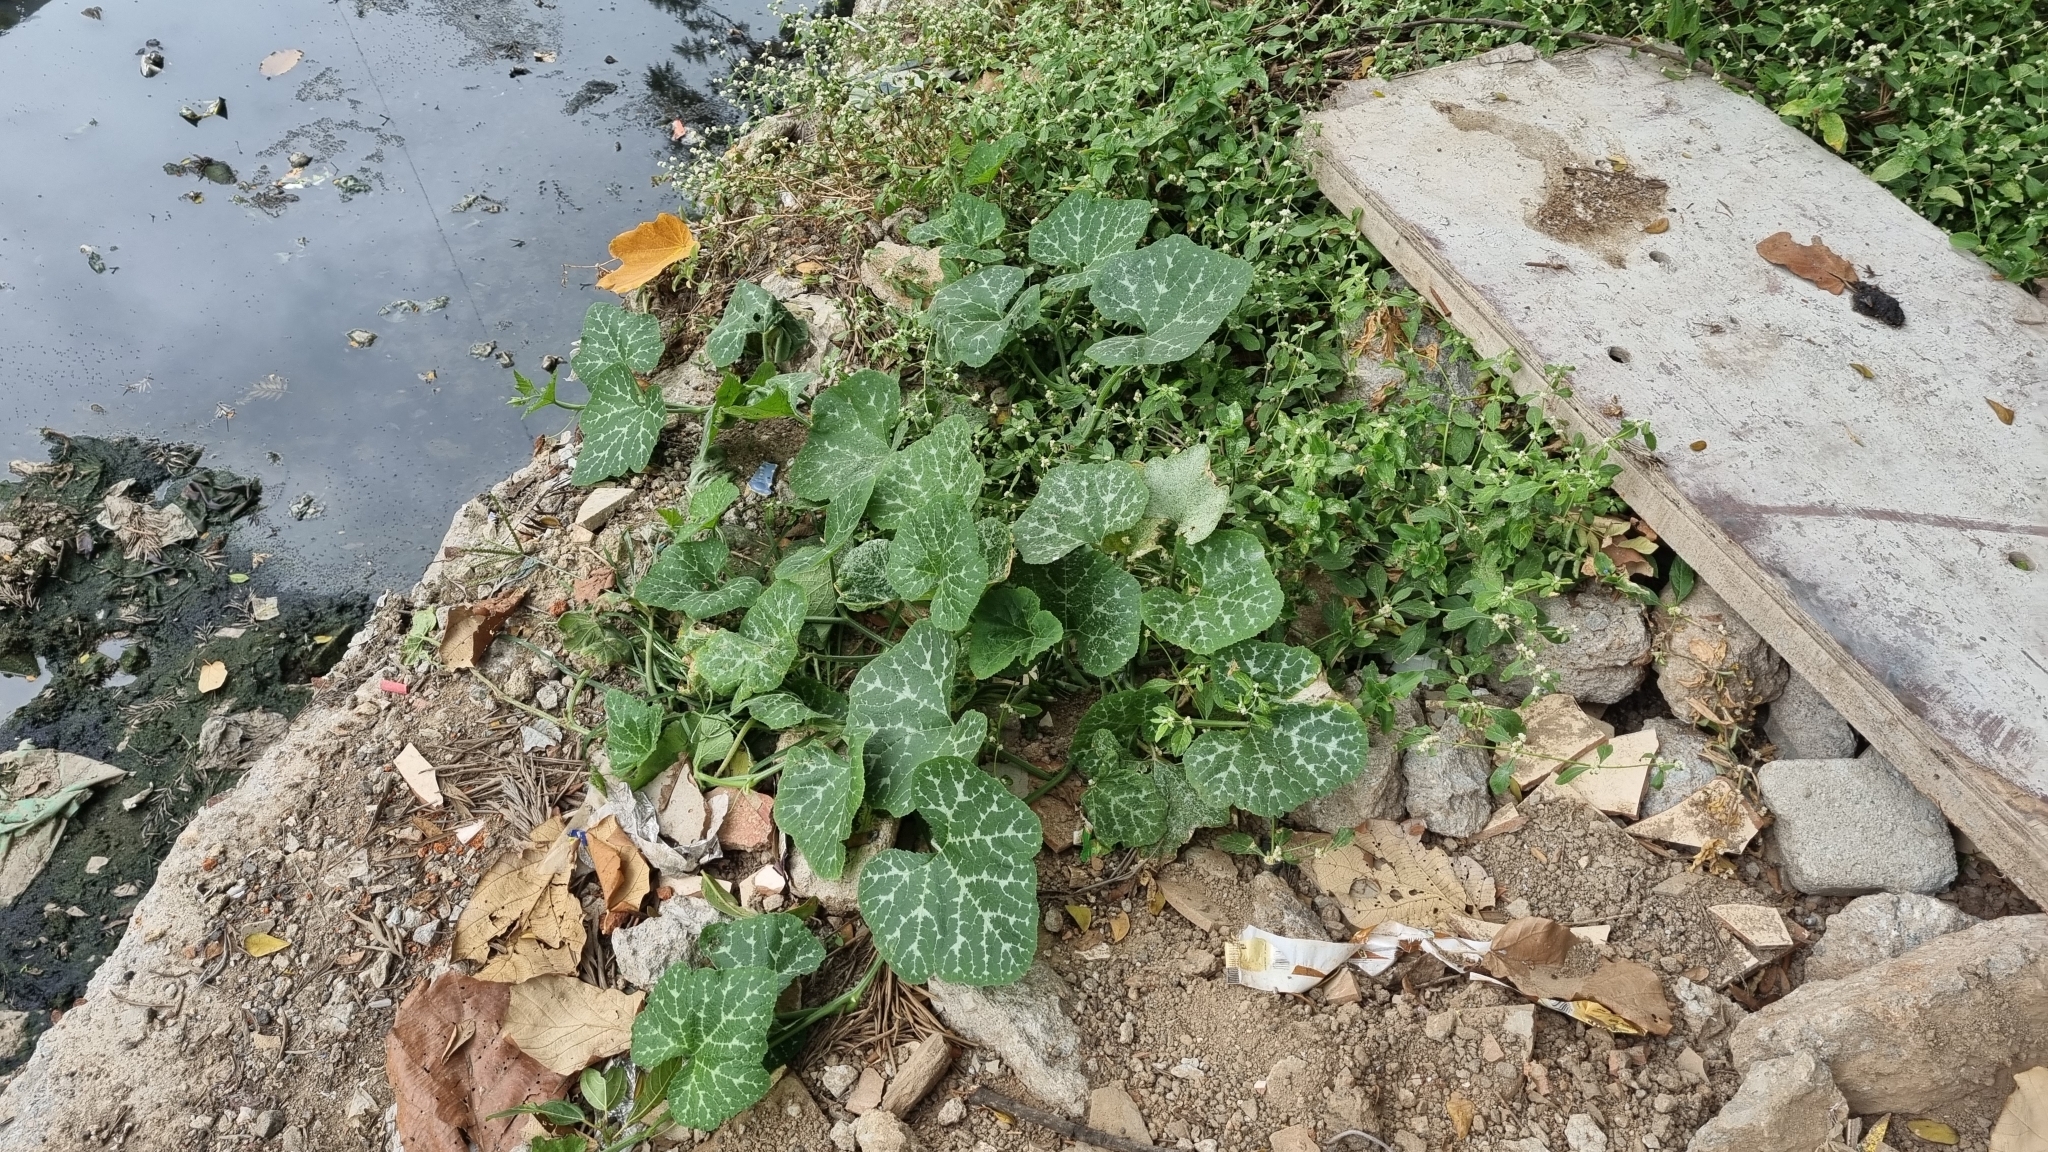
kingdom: Plantae
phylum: Tracheophyta
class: Magnoliopsida
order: Cucurbitales
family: Cucurbitaceae
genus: Cucurbita
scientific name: Cucurbita moschata
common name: Squash / pumpkin
